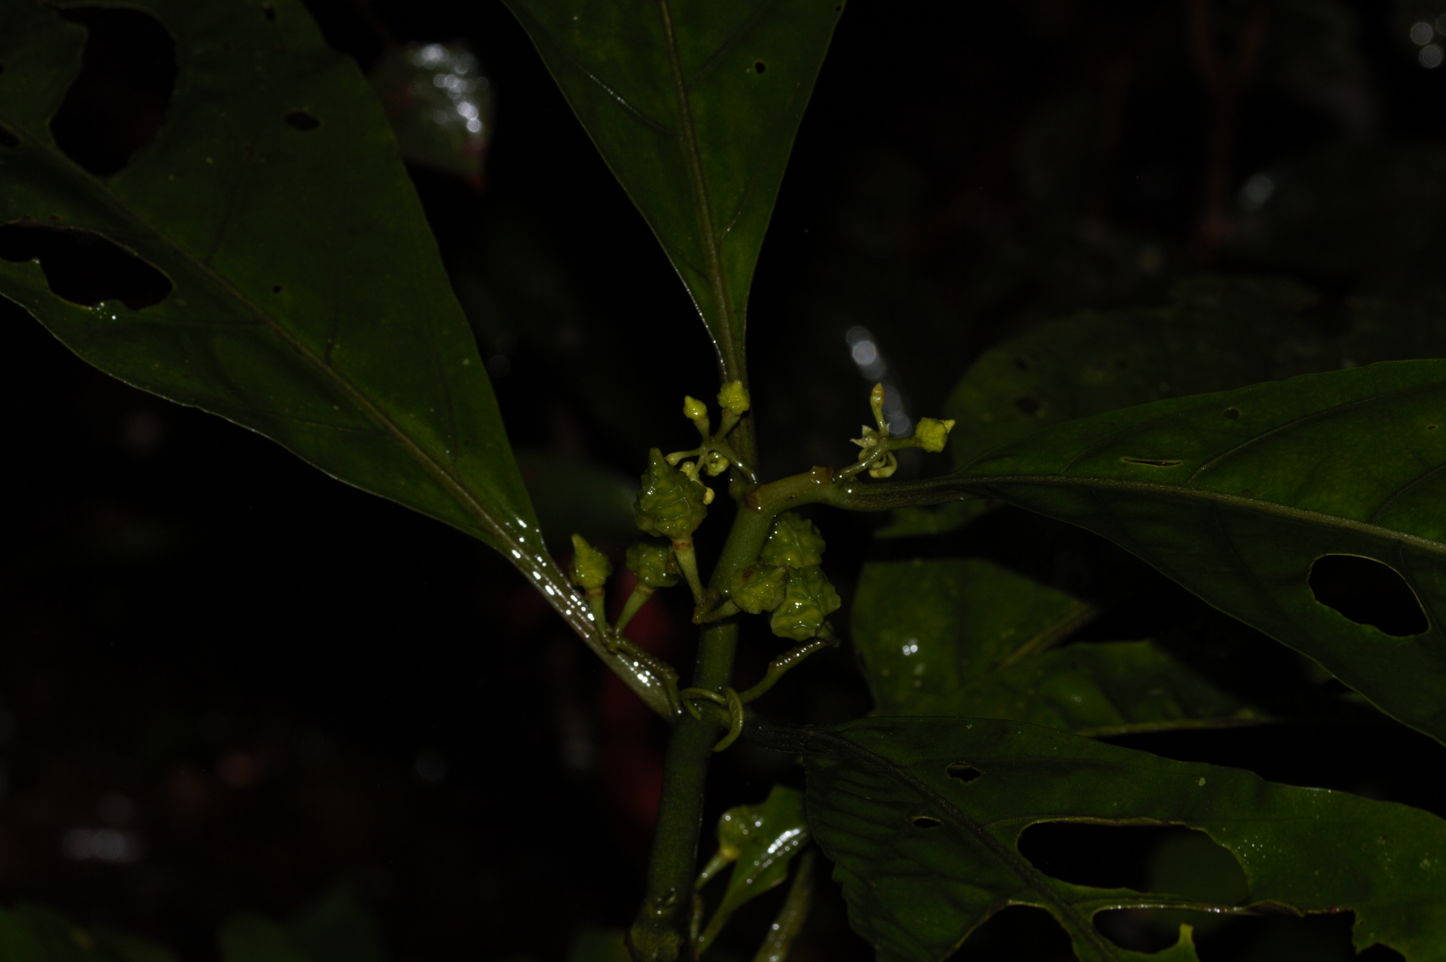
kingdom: Plantae
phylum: Tracheophyta
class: Magnoliopsida
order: Solanales
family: Solanaceae
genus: Solanum
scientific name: Solanum anceps
